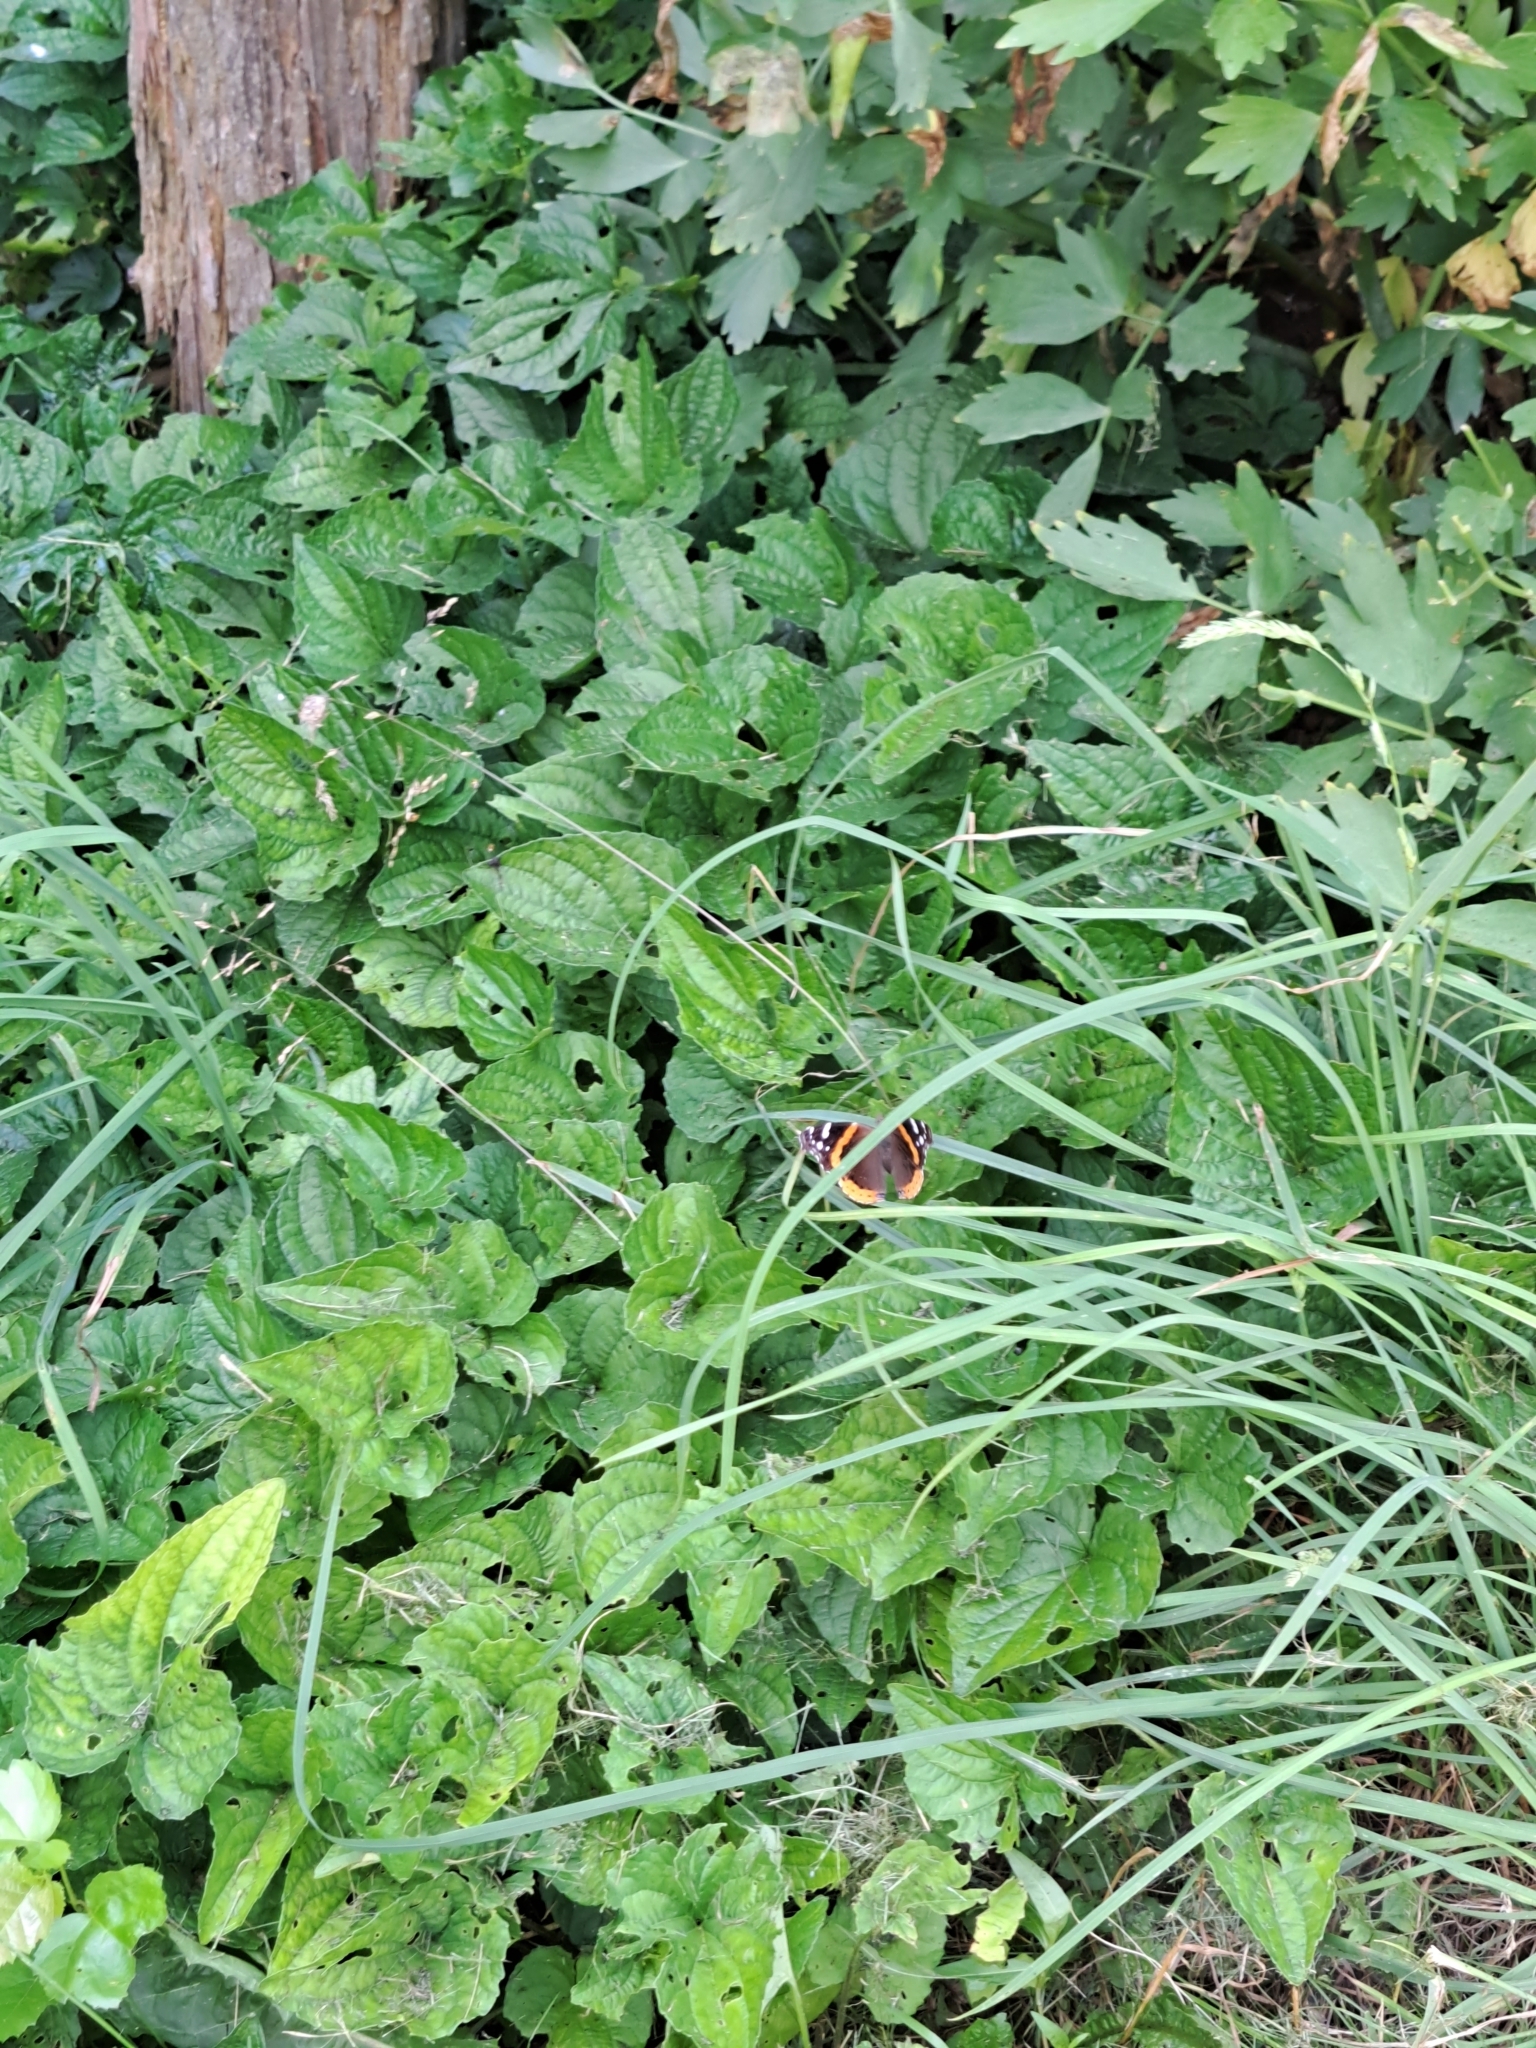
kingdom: Animalia
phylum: Arthropoda
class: Insecta
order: Lepidoptera
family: Nymphalidae
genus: Vanessa
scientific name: Vanessa atalanta
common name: Red admiral
